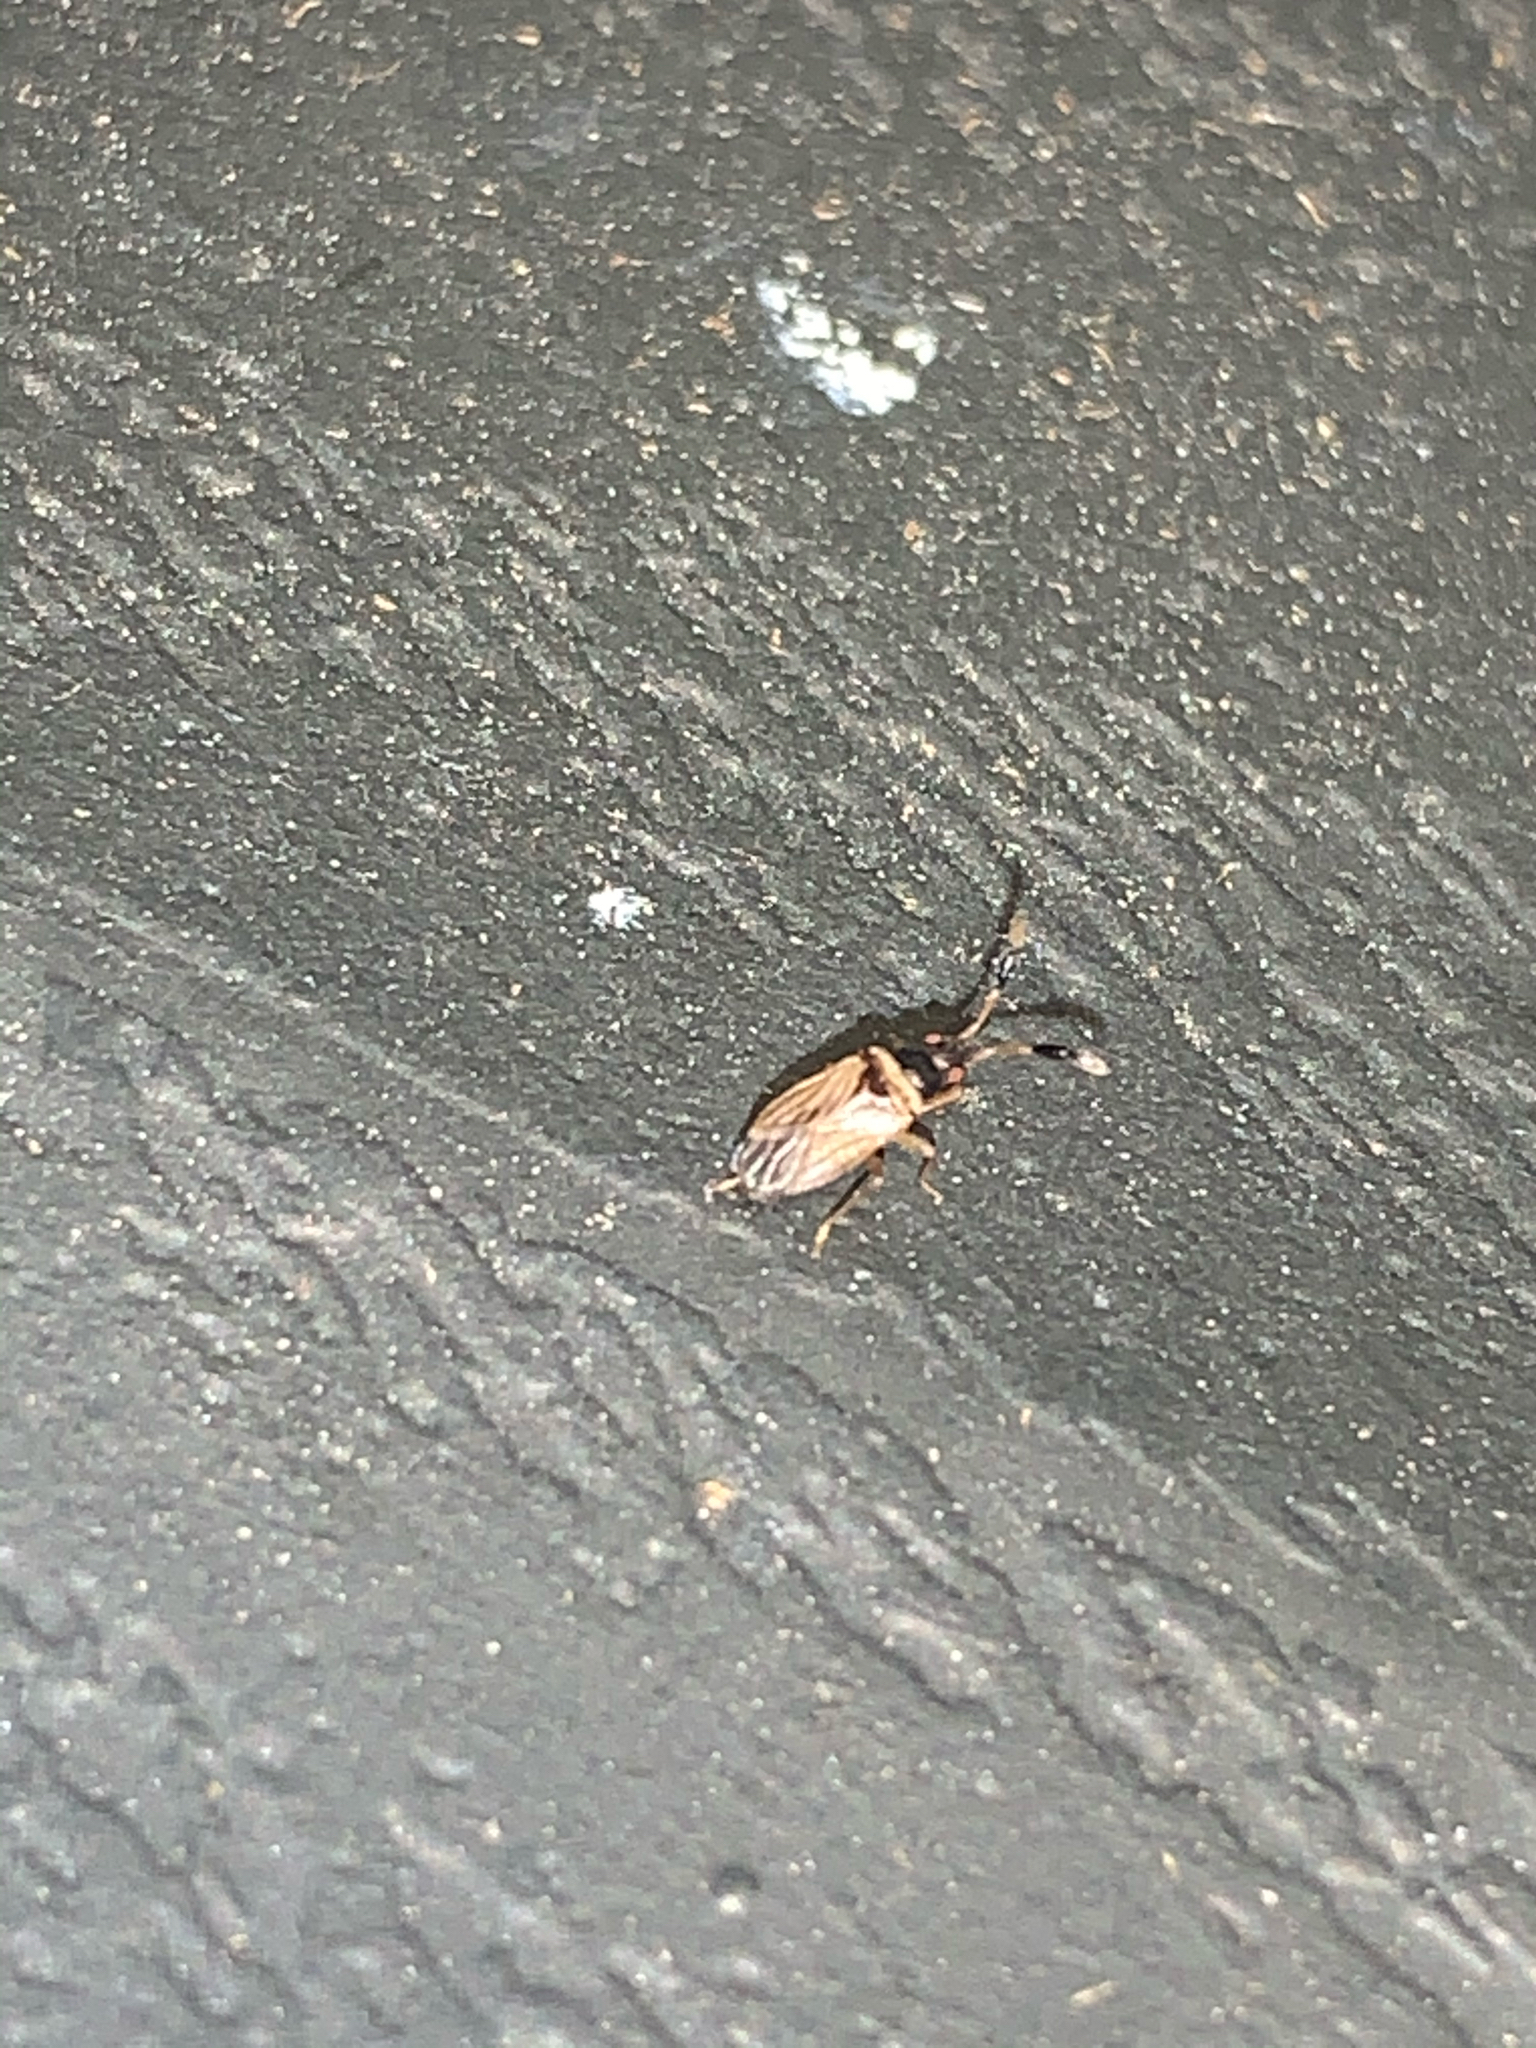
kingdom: Animalia
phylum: Arthropoda
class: Insecta
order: Hemiptera
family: Rhyparochromidae
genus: Ptochiomera
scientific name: Ptochiomera nodosa
